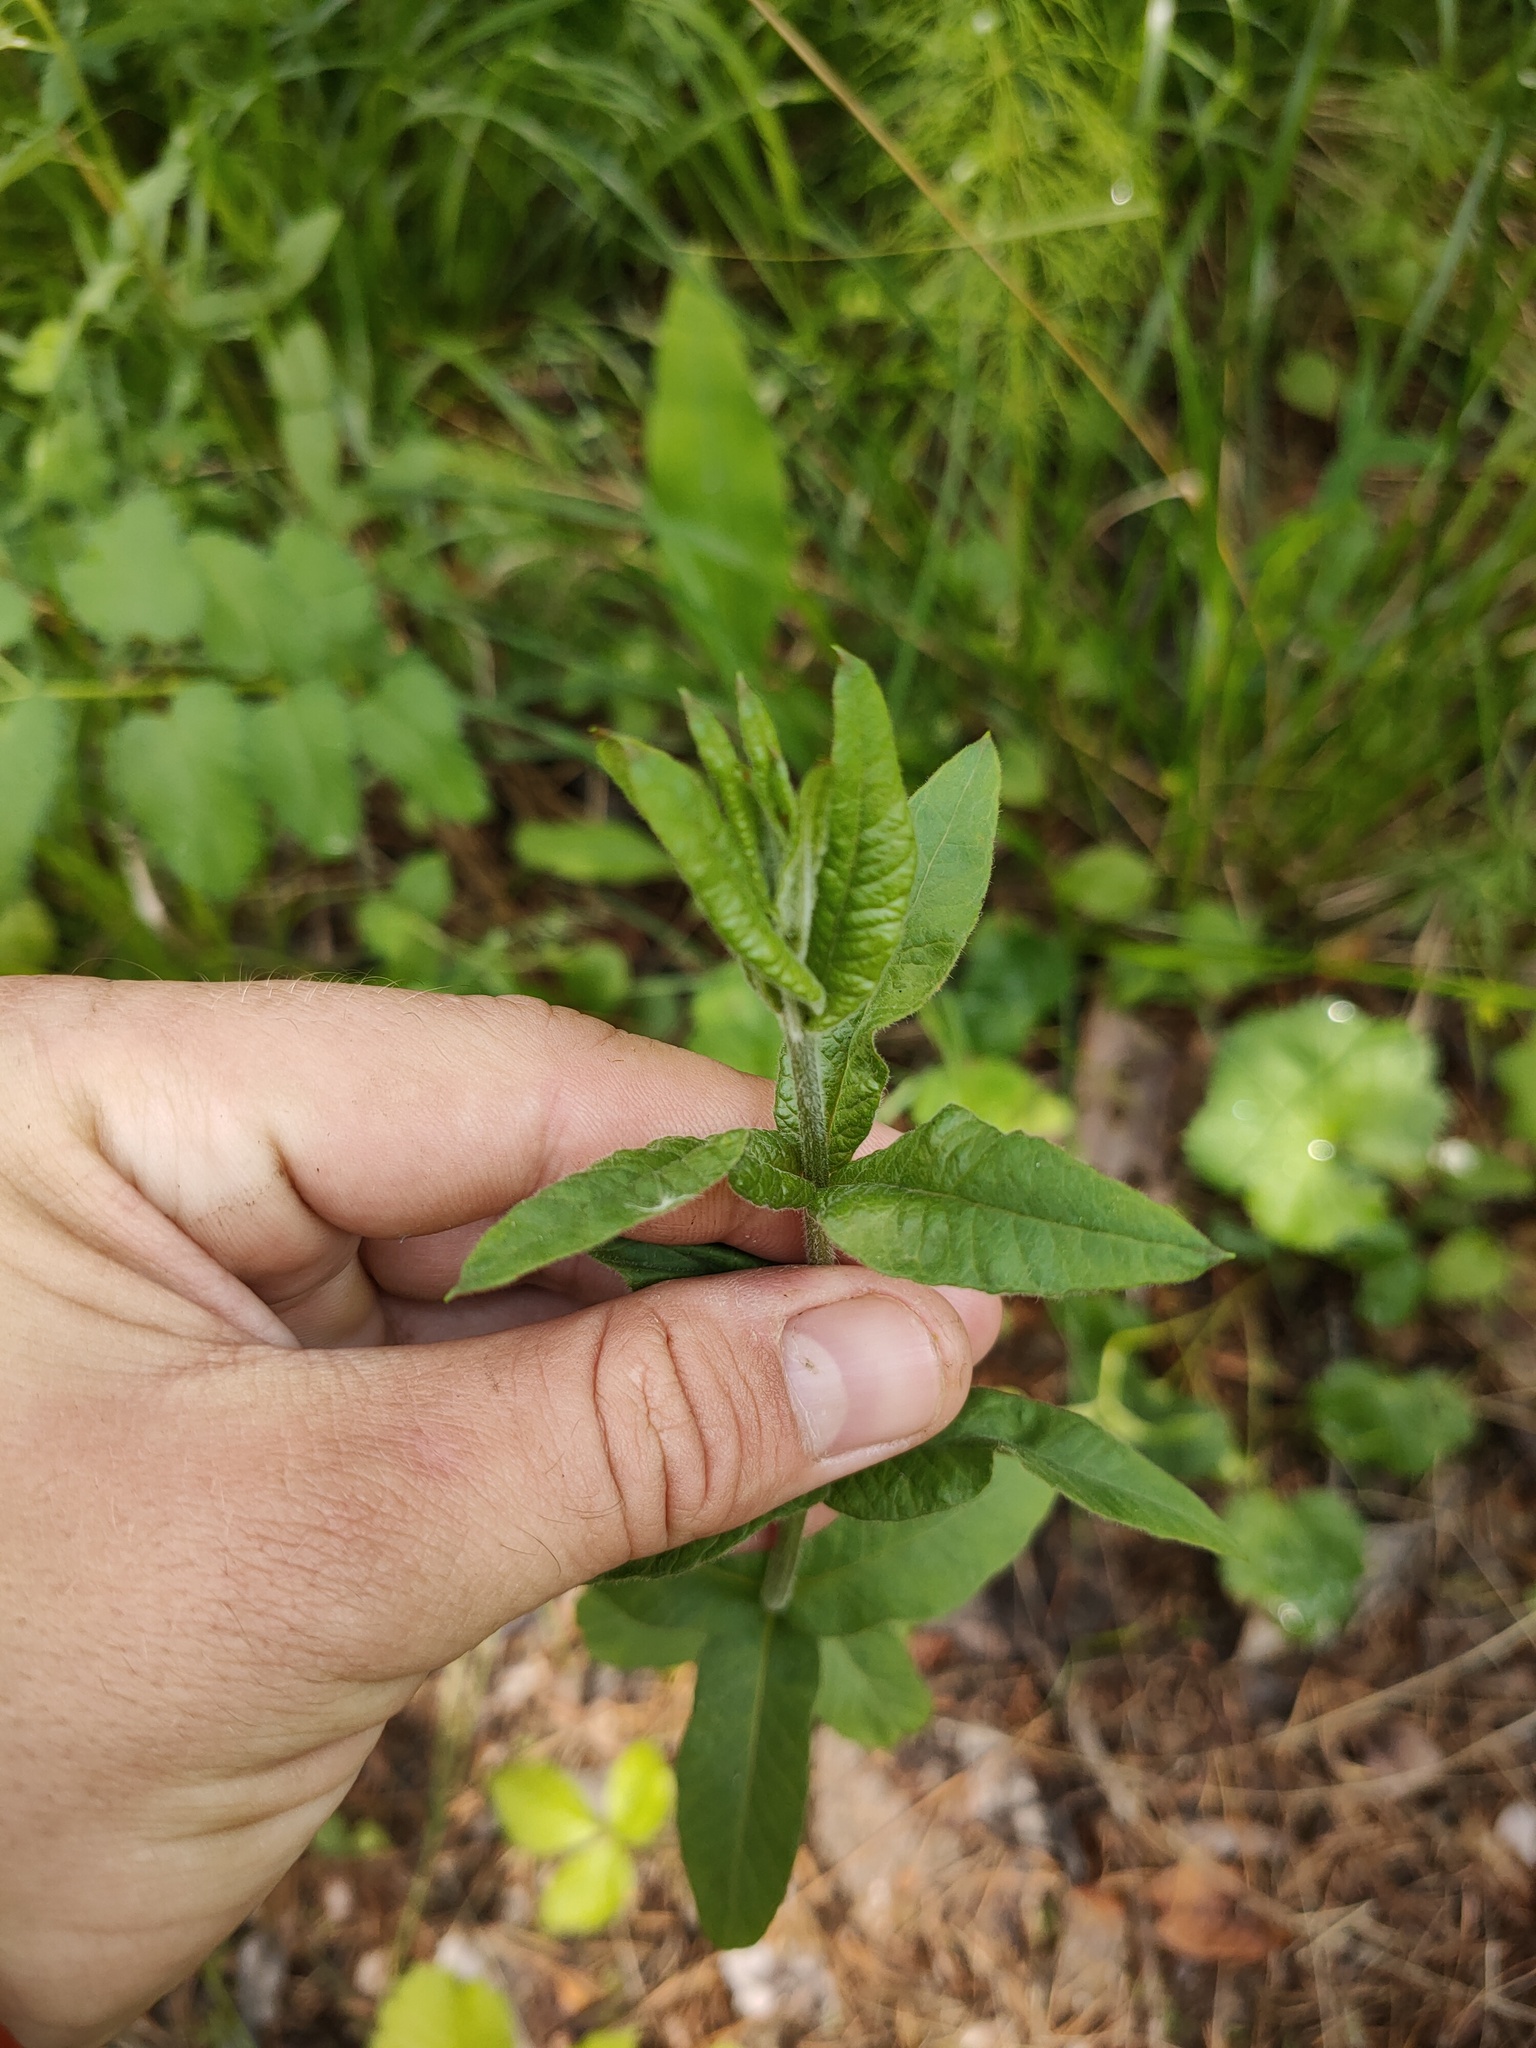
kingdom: Plantae
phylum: Tracheophyta
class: Magnoliopsida
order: Ericales
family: Primulaceae
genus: Lysimachia
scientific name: Lysimachia vulgaris
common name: Yellow loosestrife
